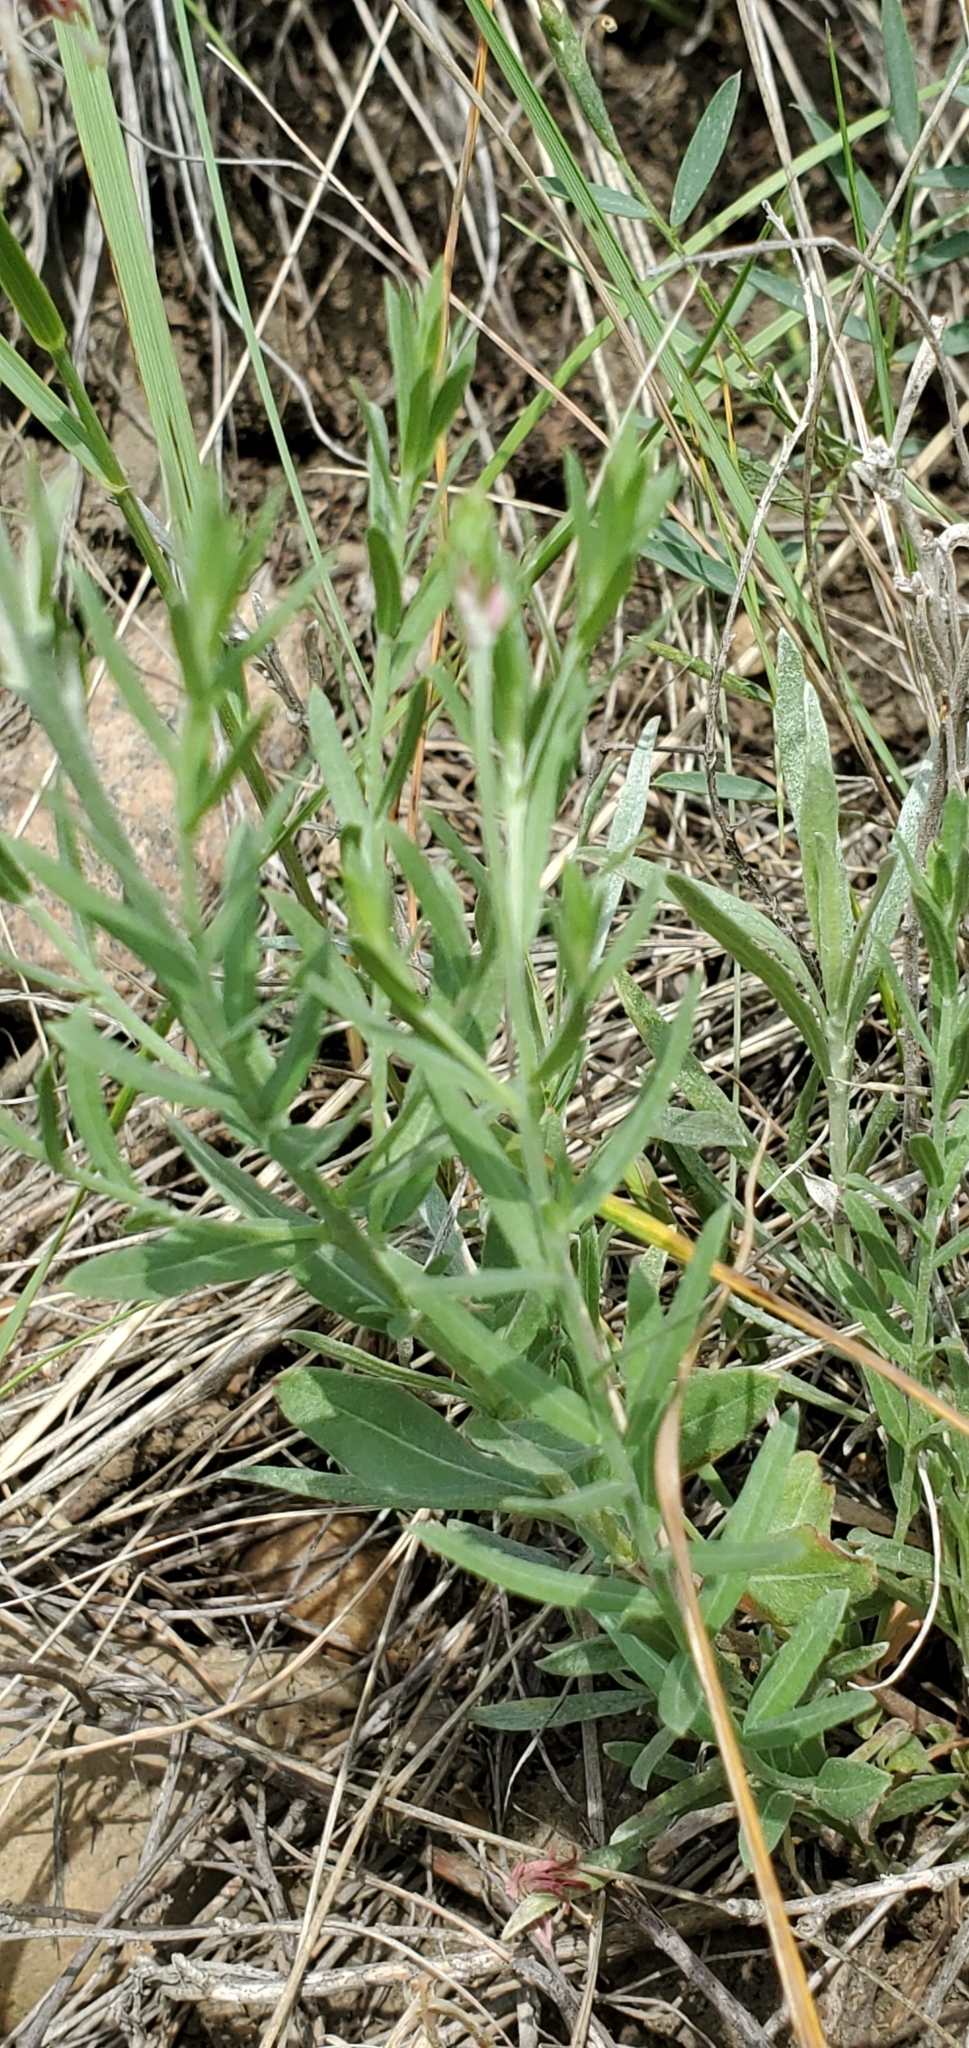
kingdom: Plantae
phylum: Tracheophyta
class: Magnoliopsida
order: Myrtales
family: Onagraceae
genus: Oenothera
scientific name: Oenothera suffrutescens
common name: Scarlet beeblossom
